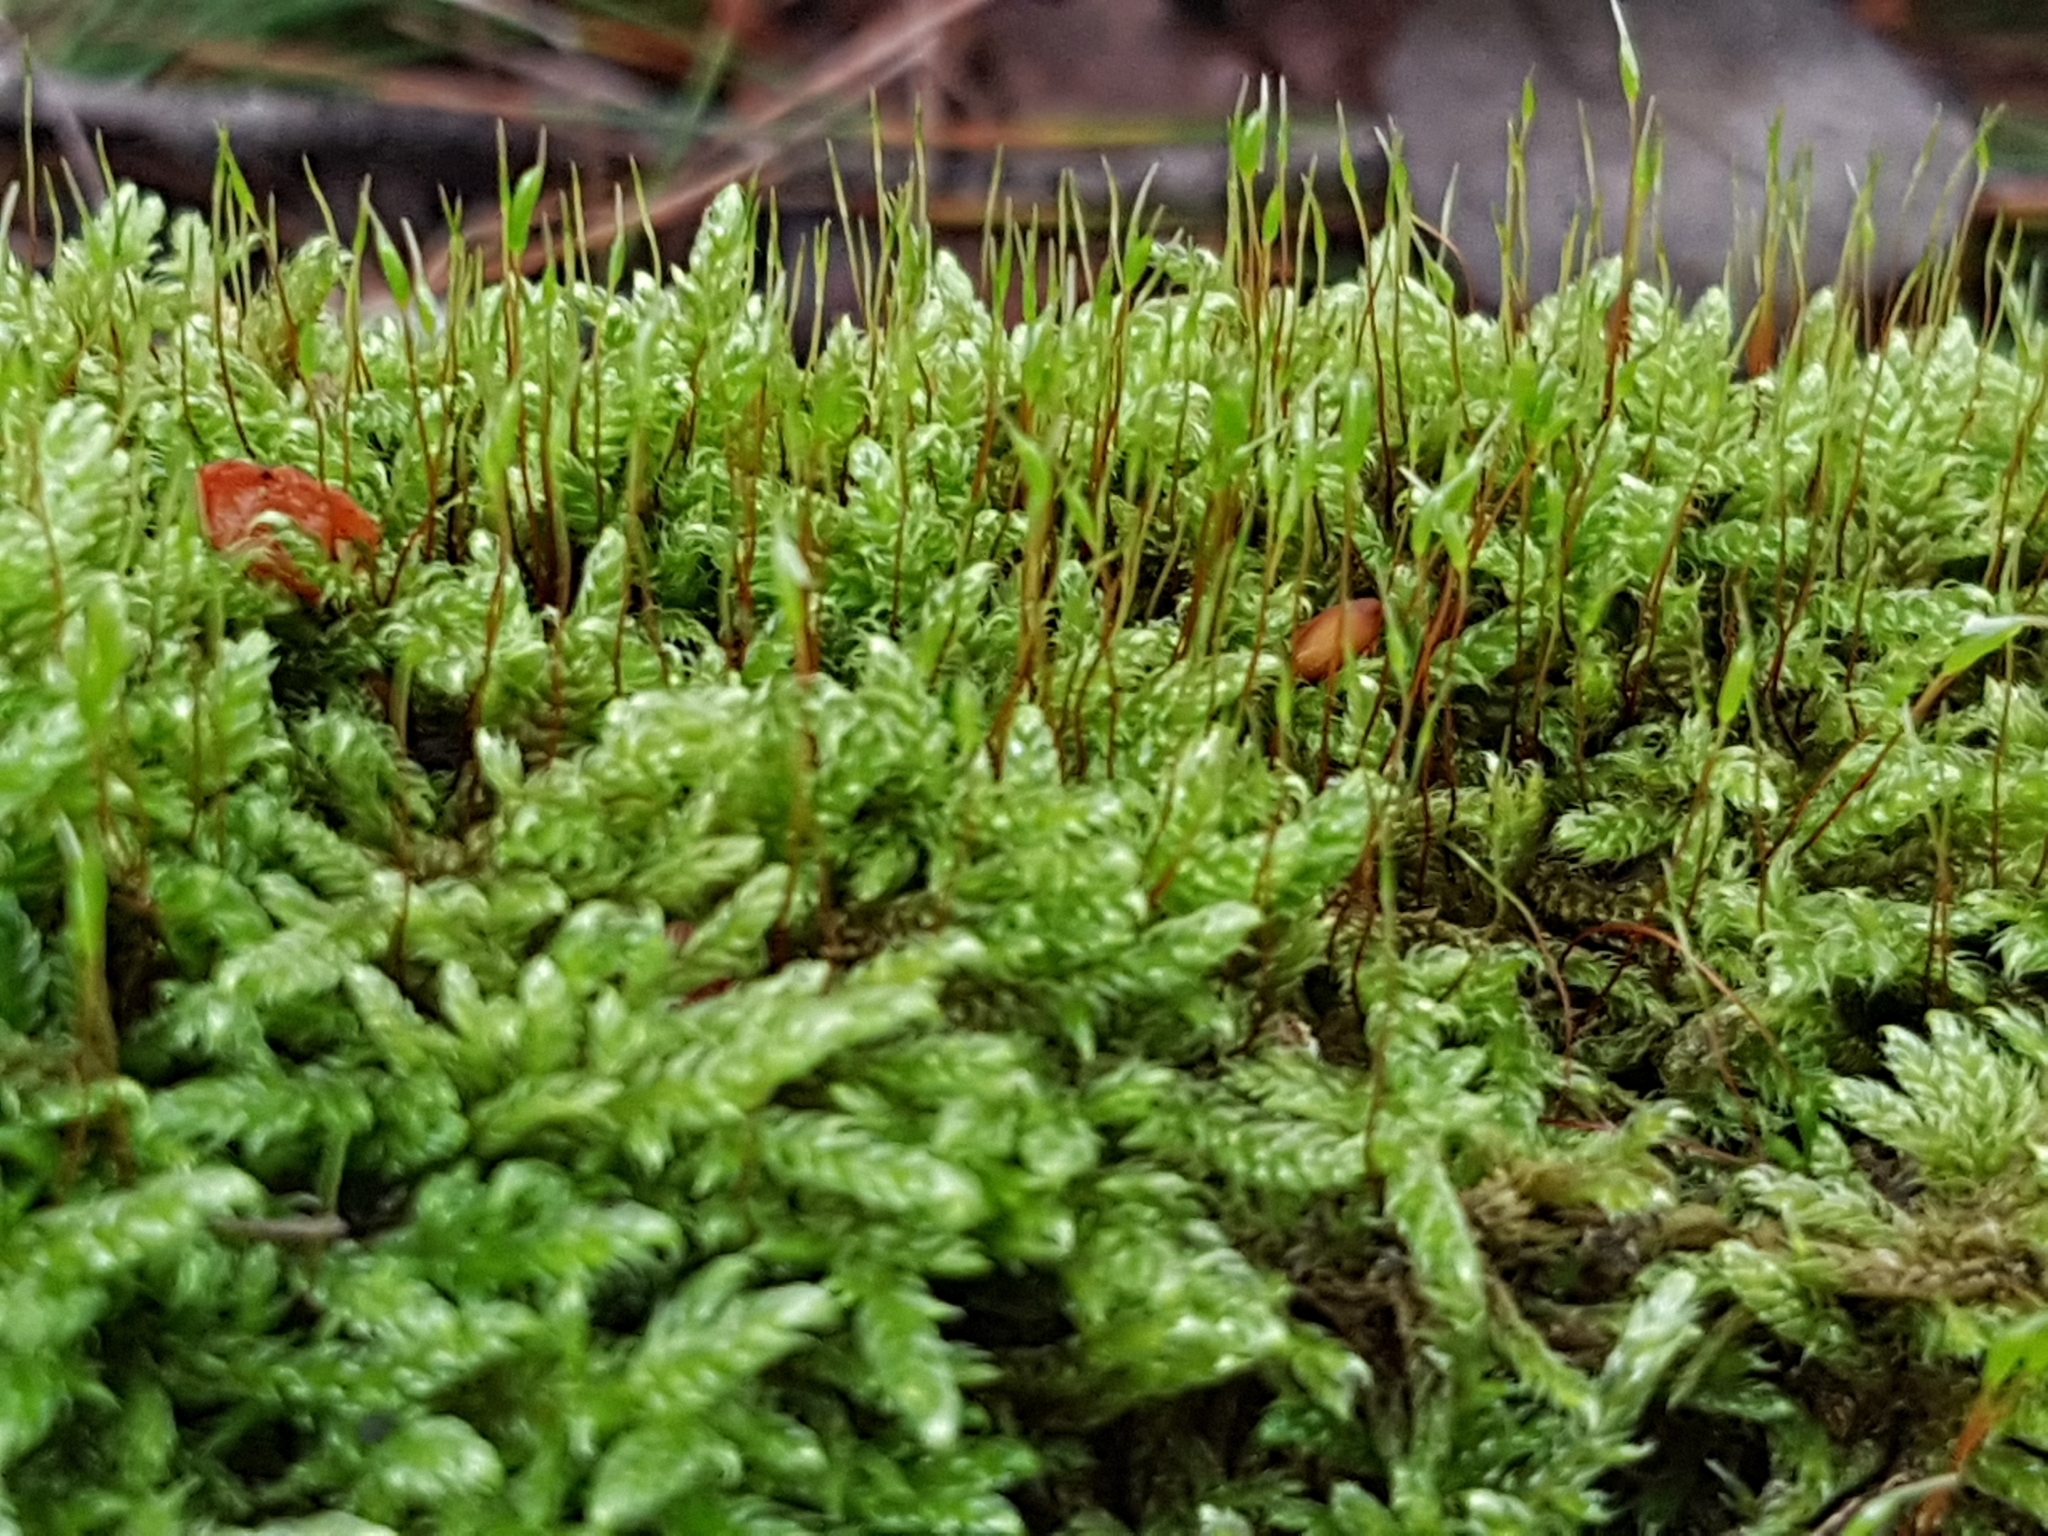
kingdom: Plantae
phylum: Bryophyta
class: Bryopsida
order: Hypnales
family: Hypnaceae
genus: Hypnum
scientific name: Hypnum cupressiforme
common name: Cypress-leaved plait-moss
